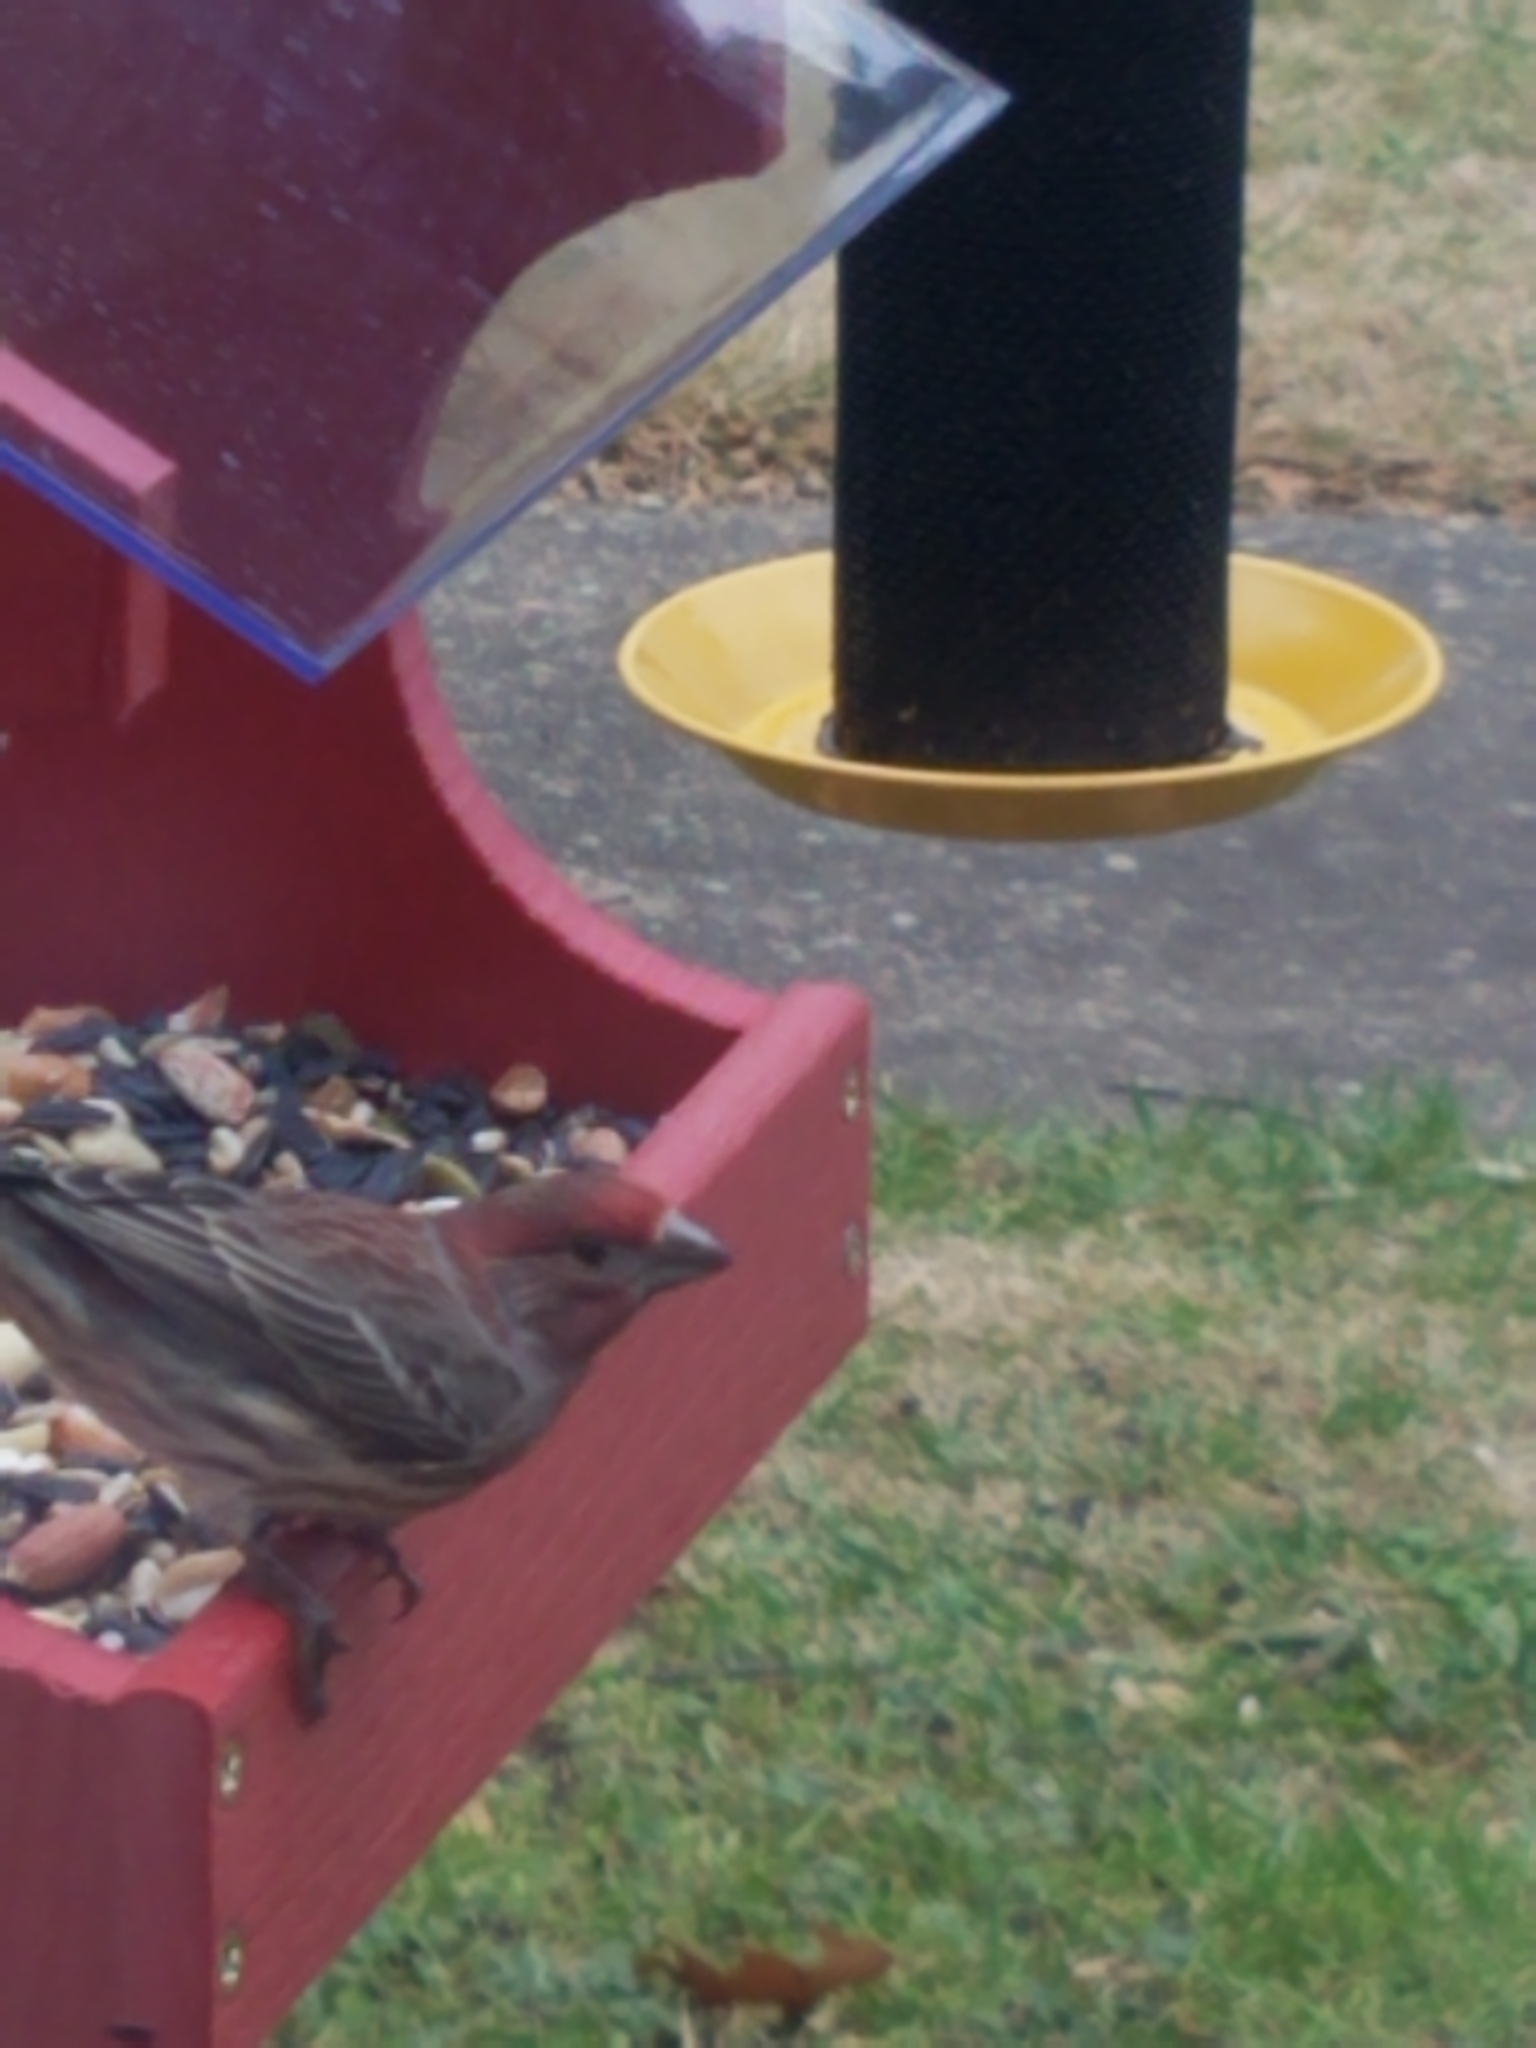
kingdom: Animalia
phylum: Chordata
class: Aves
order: Passeriformes
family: Fringillidae
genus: Haemorhous
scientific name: Haemorhous mexicanus
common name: House finch
